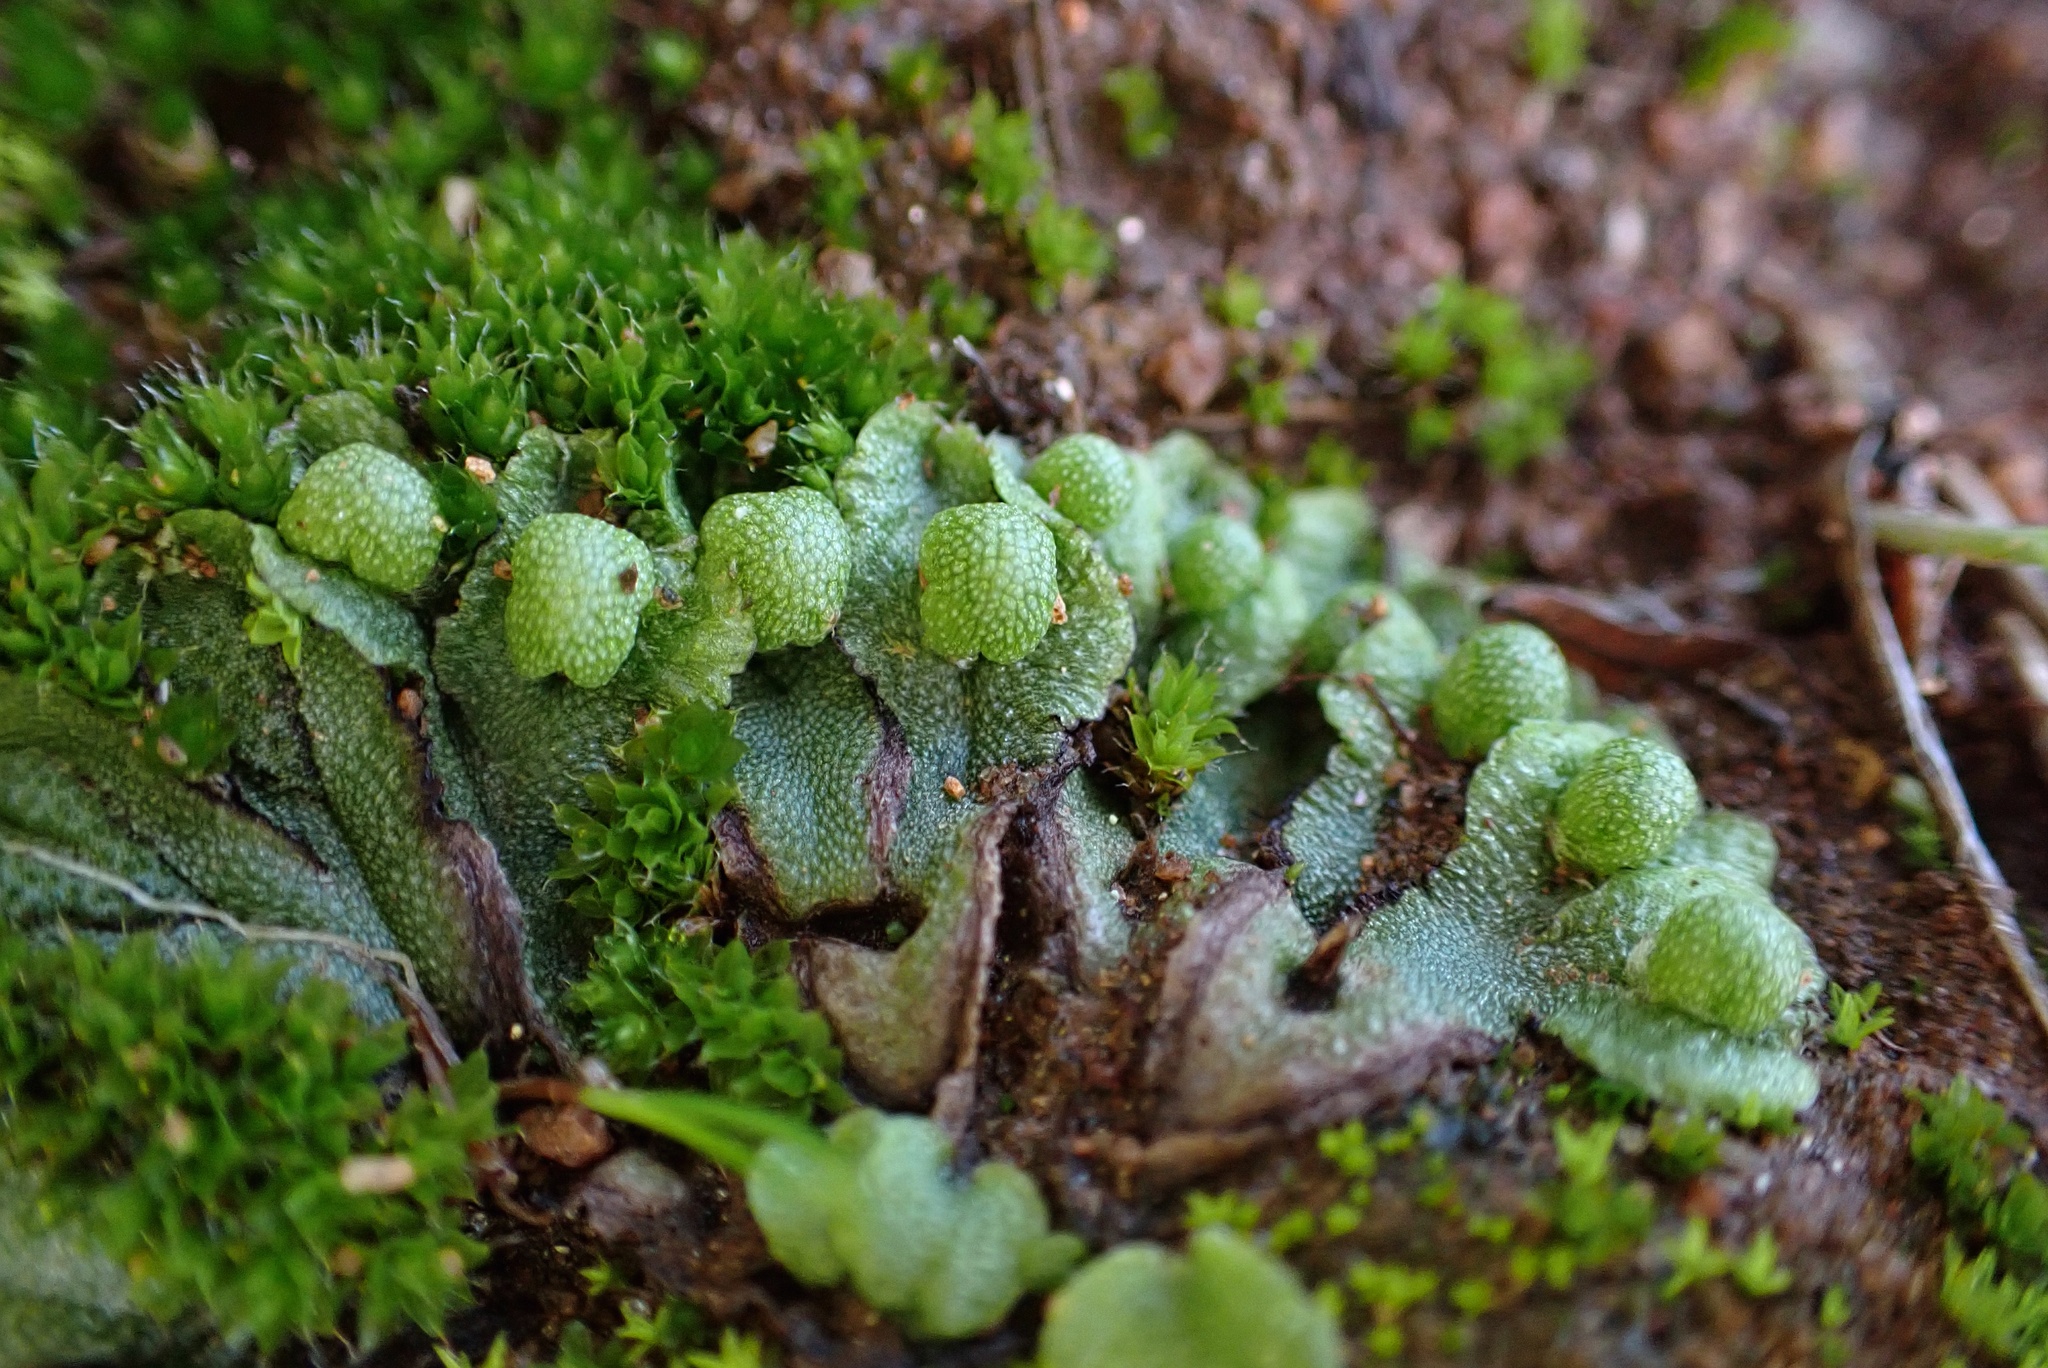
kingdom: Plantae
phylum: Marchantiophyta
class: Marchantiopsida
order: Marchantiales
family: Aytoniaceae
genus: Asterella
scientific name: Asterella californica
